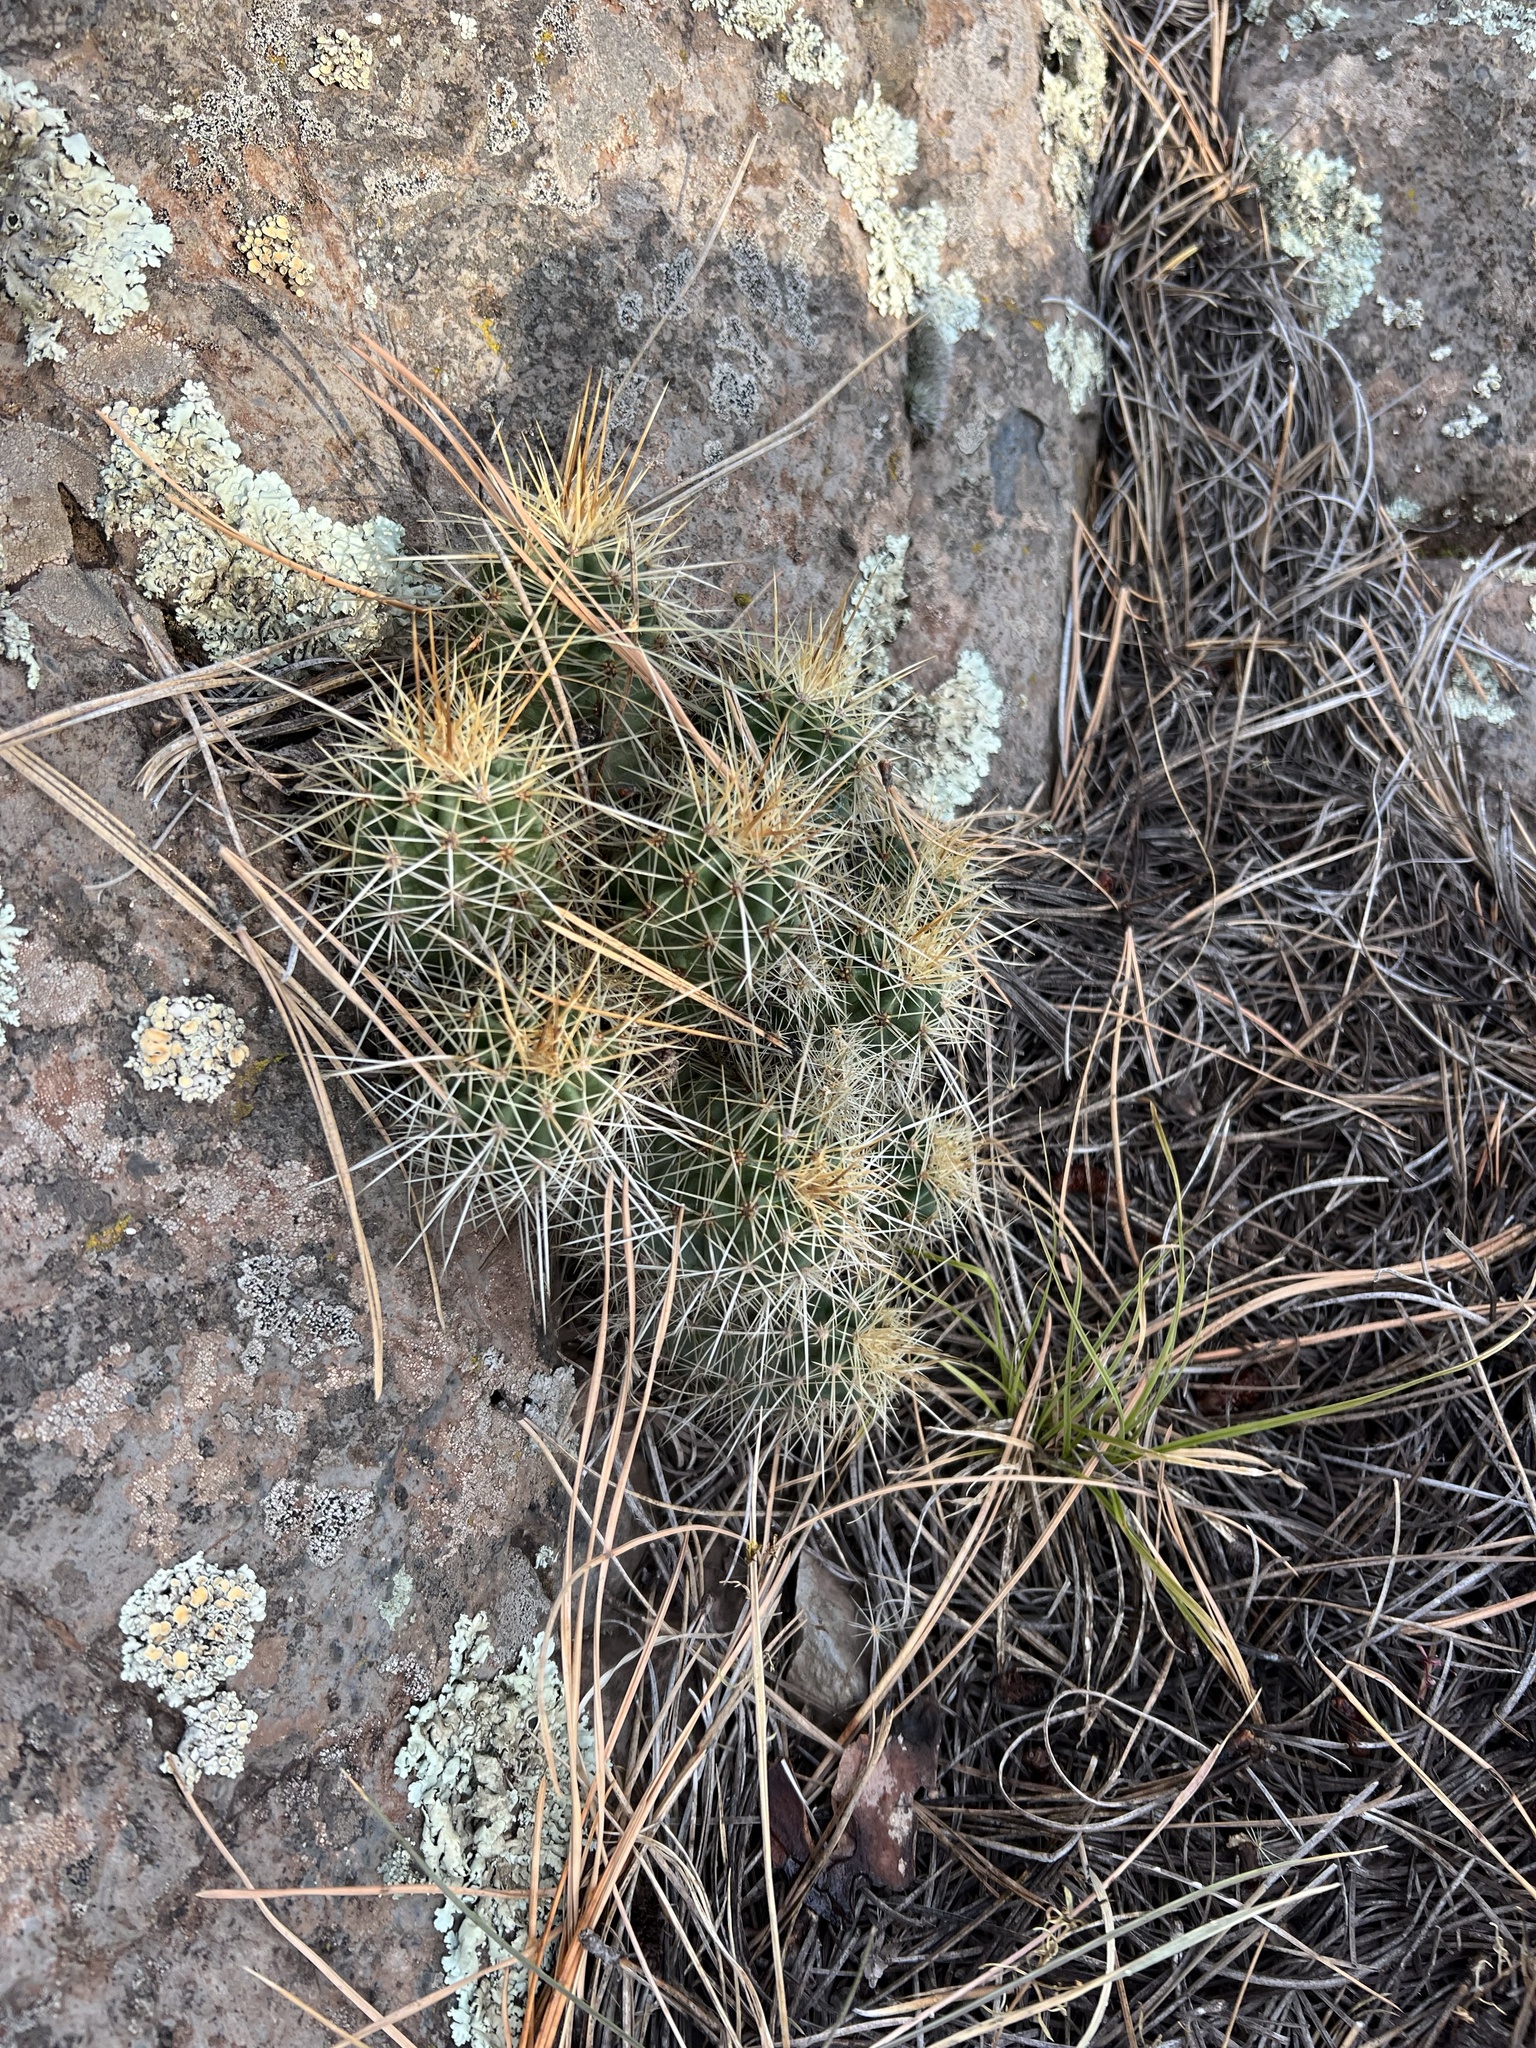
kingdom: Plantae
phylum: Tracheophyta
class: Magnoliopsida
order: Caryophyllales
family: Cactaceae
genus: Echinocereus
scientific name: Echinocereus bakeri
